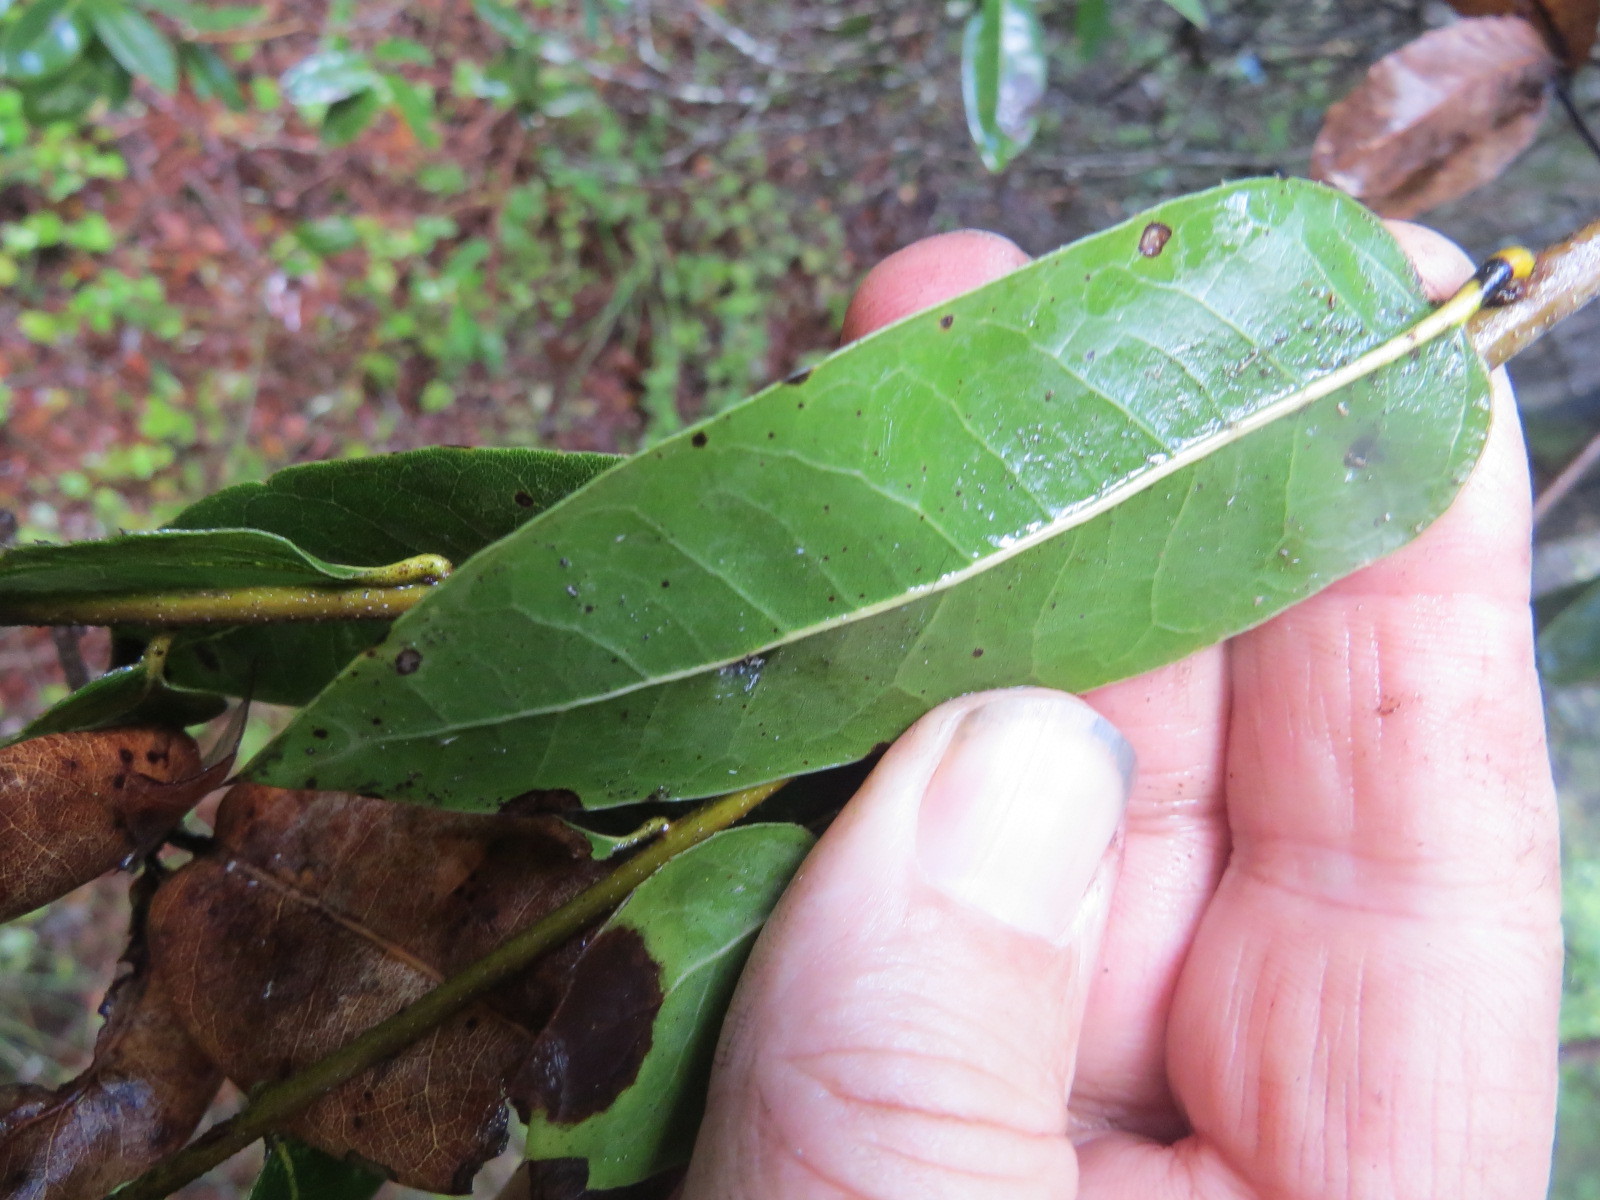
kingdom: Plantae
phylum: Tracheophyta
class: Magnoliopsida
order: Fagales
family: Fagaceae
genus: Quercus
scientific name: Quercus parvula
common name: Santa cruz island oak
